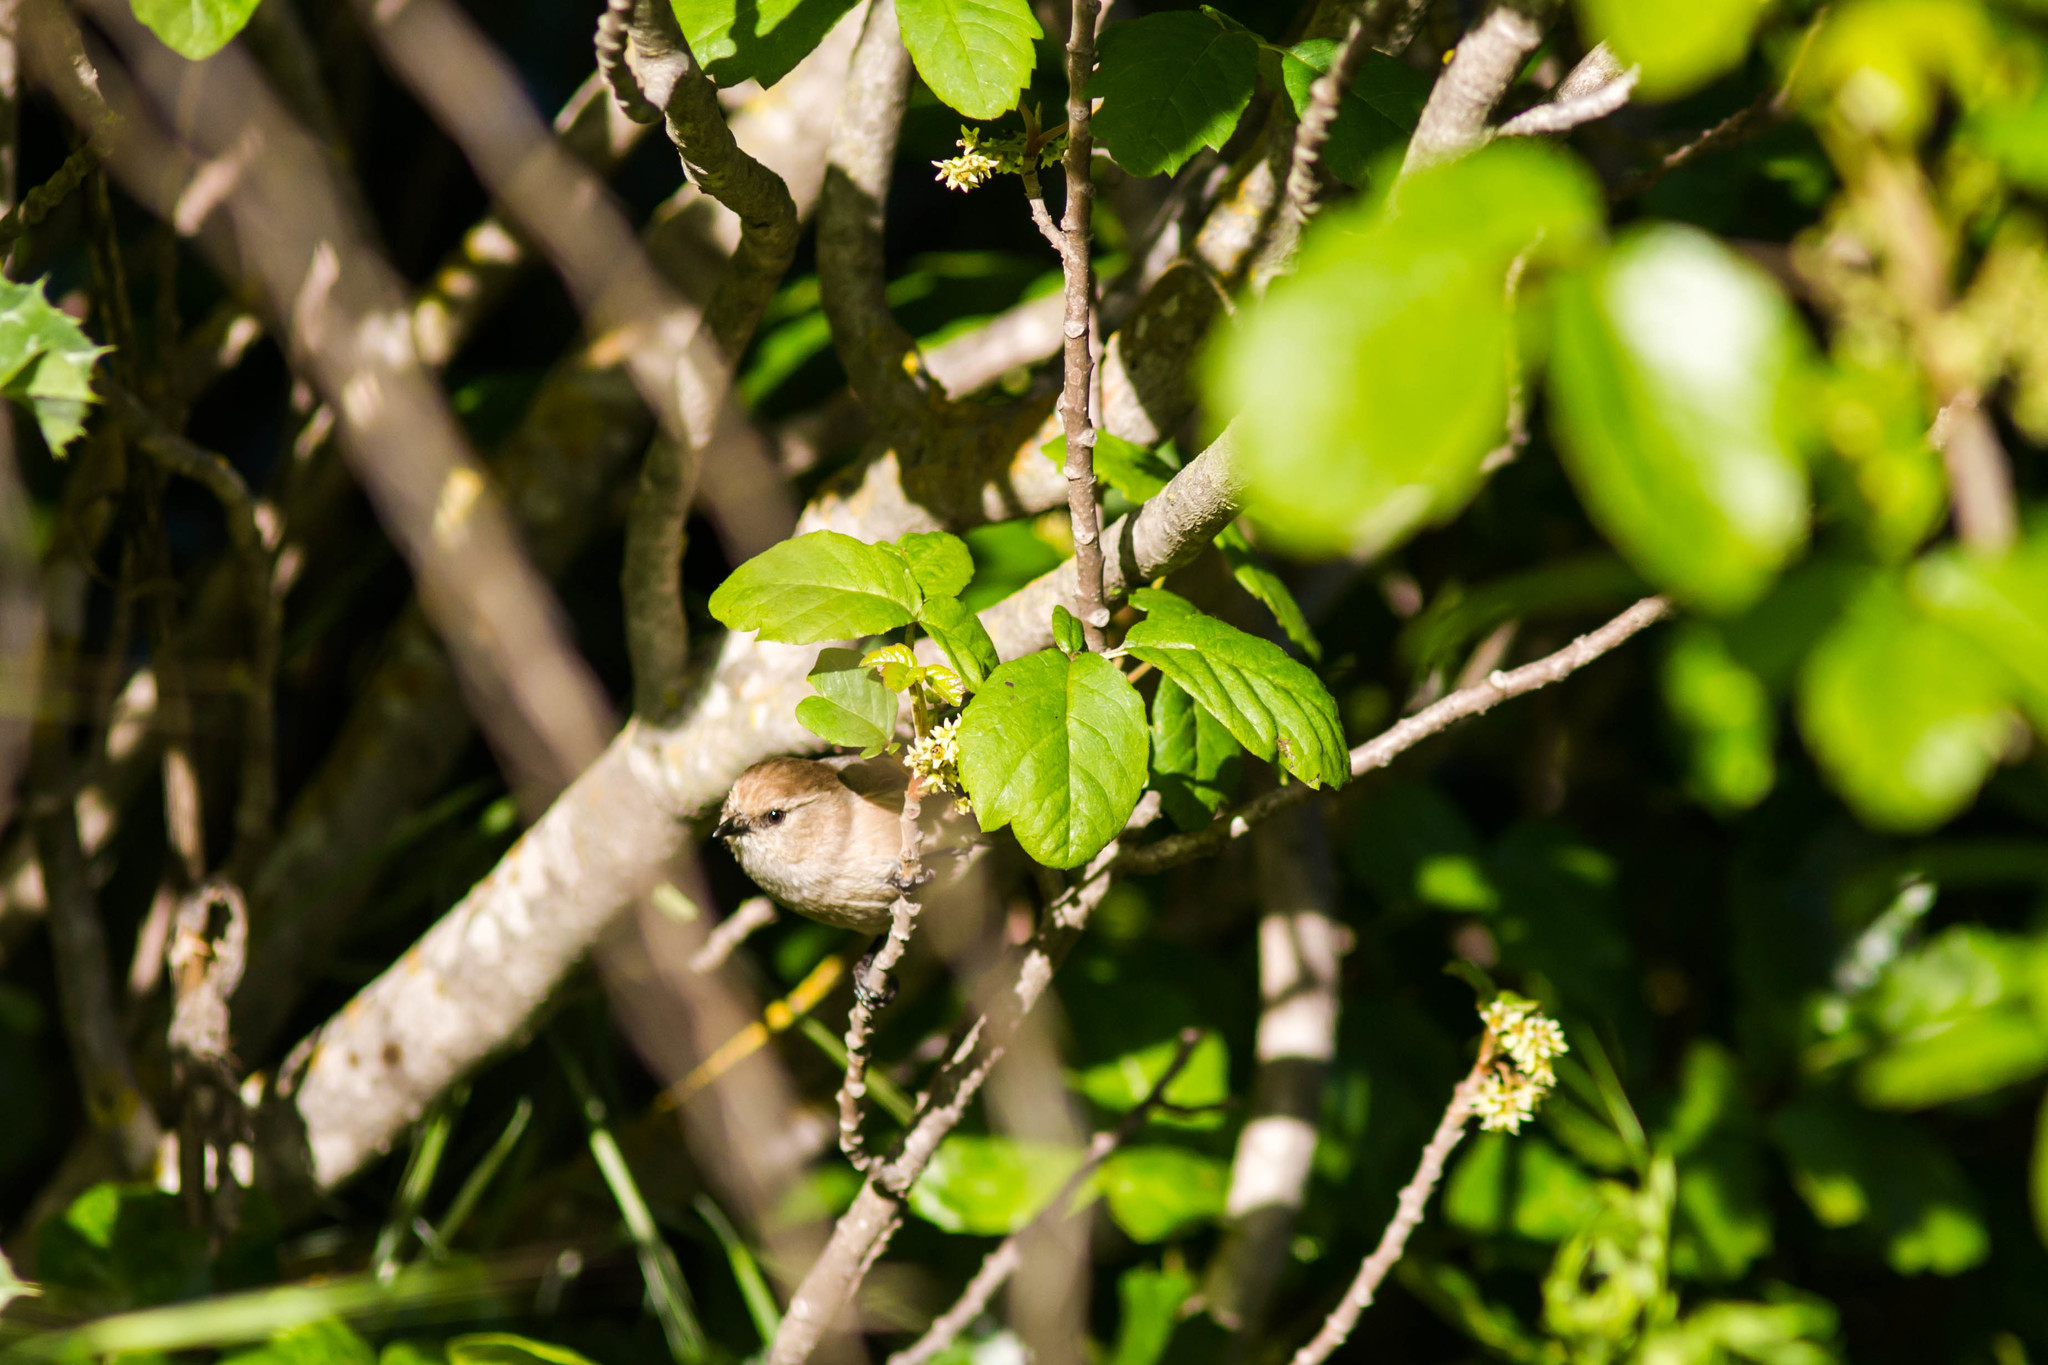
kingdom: Animalia
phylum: Chordata
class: Aves
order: Passeriformes
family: Aegithalidae
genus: Psaltriparus
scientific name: Psaltriparus minimus
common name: American bushtit
